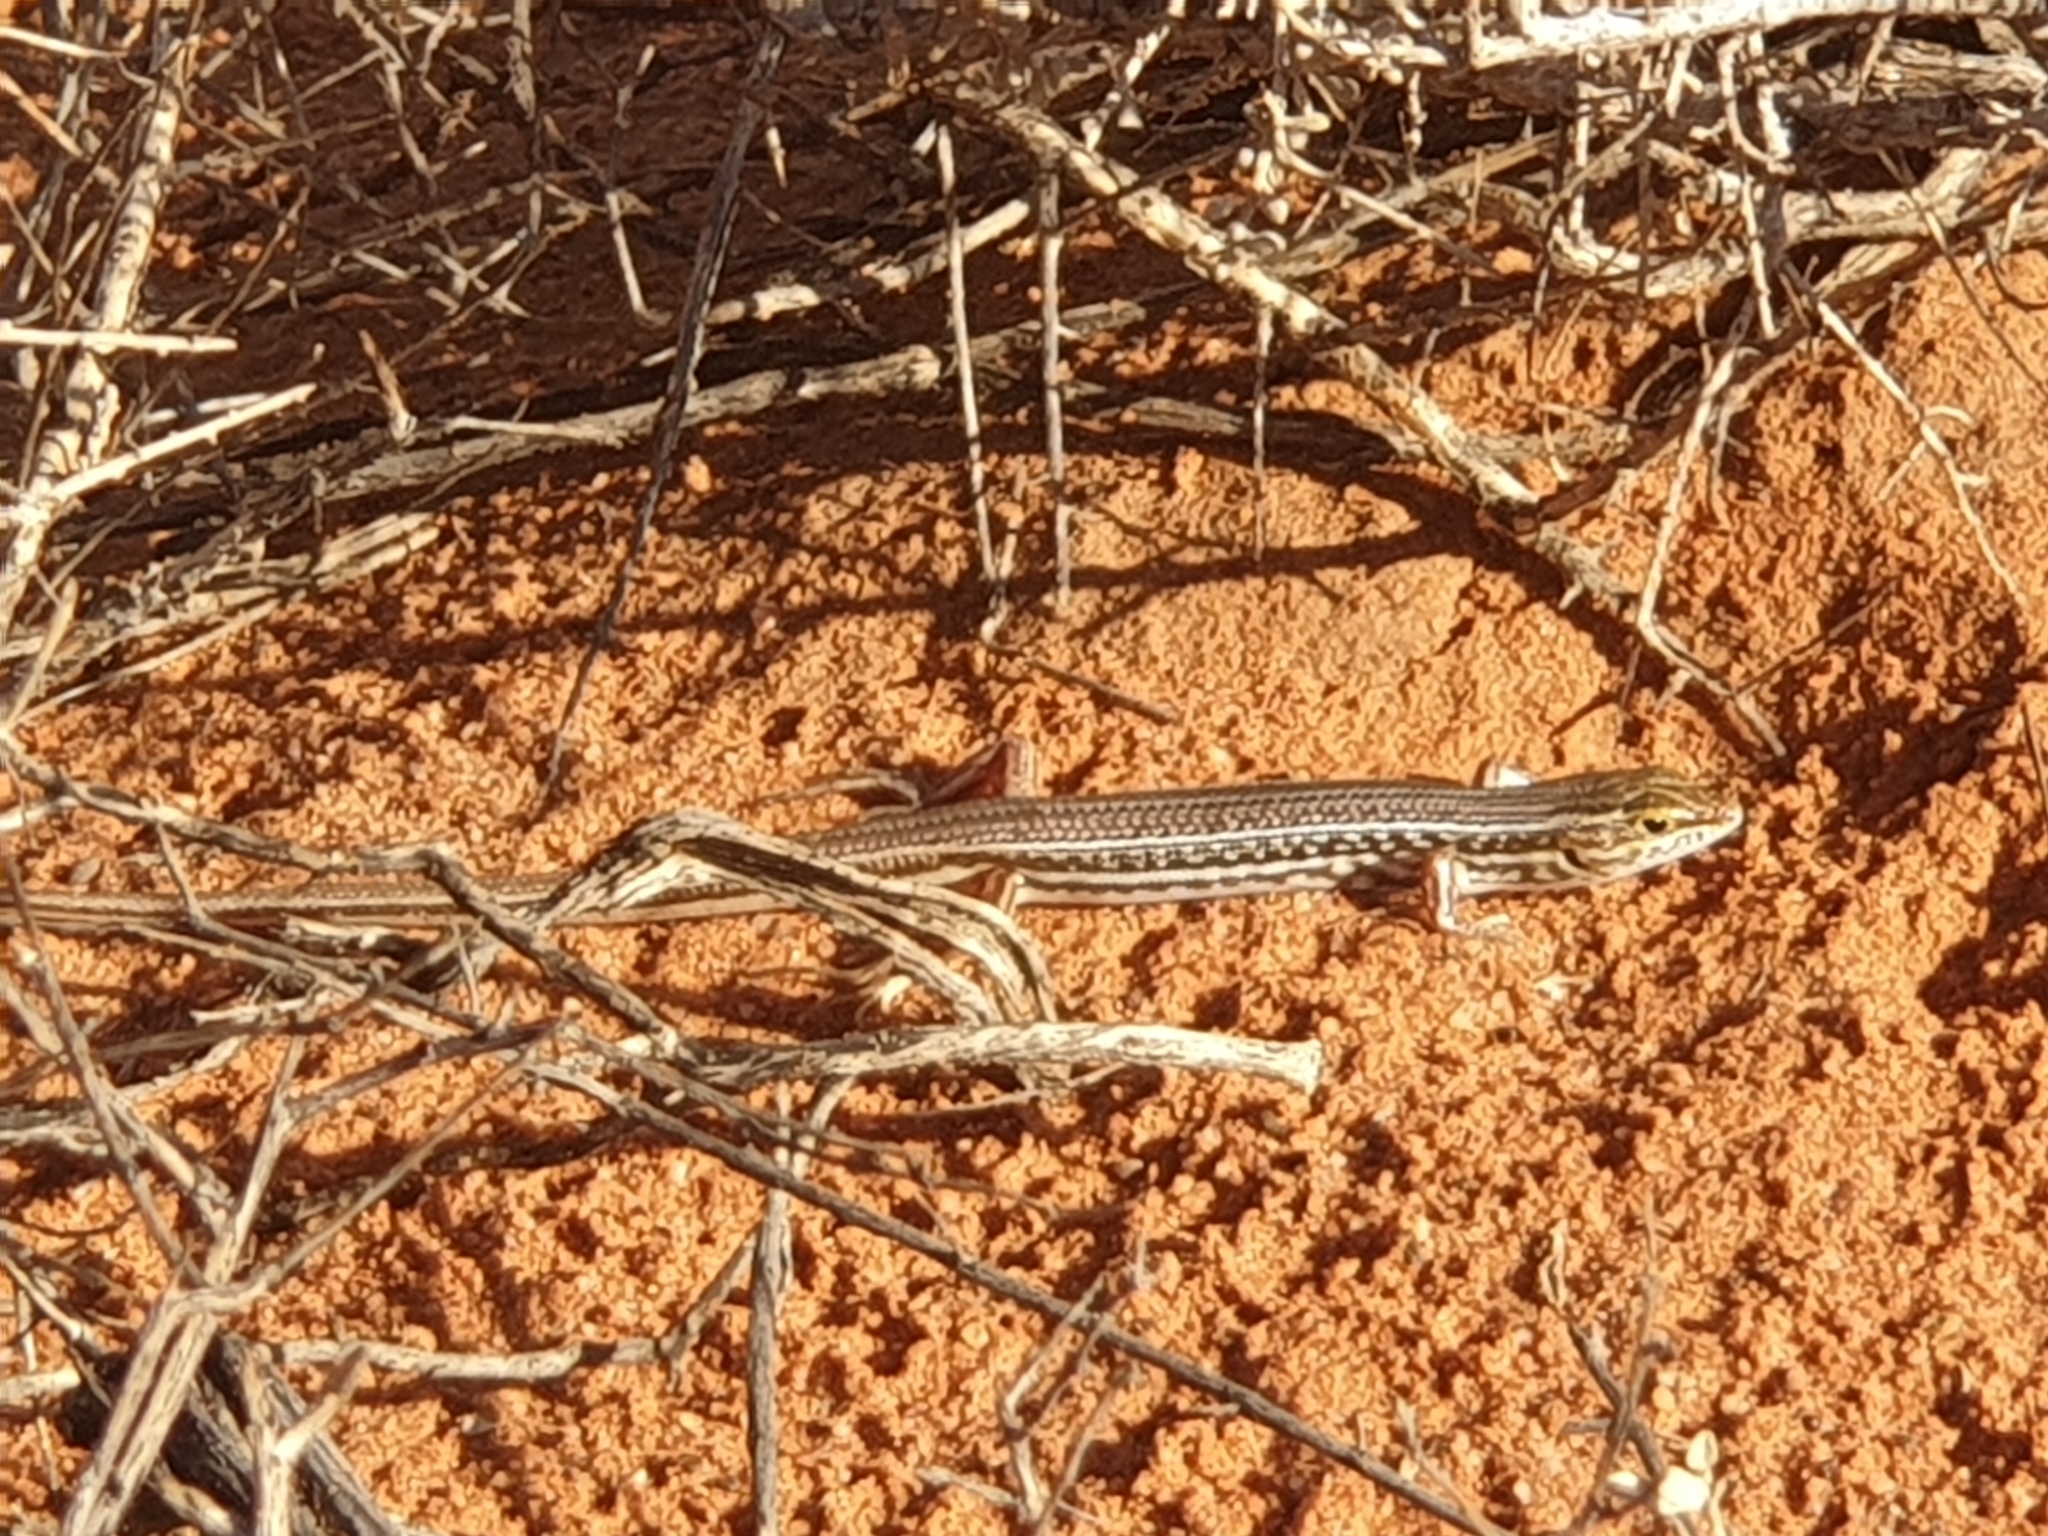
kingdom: Animalia
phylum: Chordata
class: Squamata
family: Scincidae
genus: Ctenotus
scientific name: Ctenotus regius
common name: Pale-rumped ctenotus
